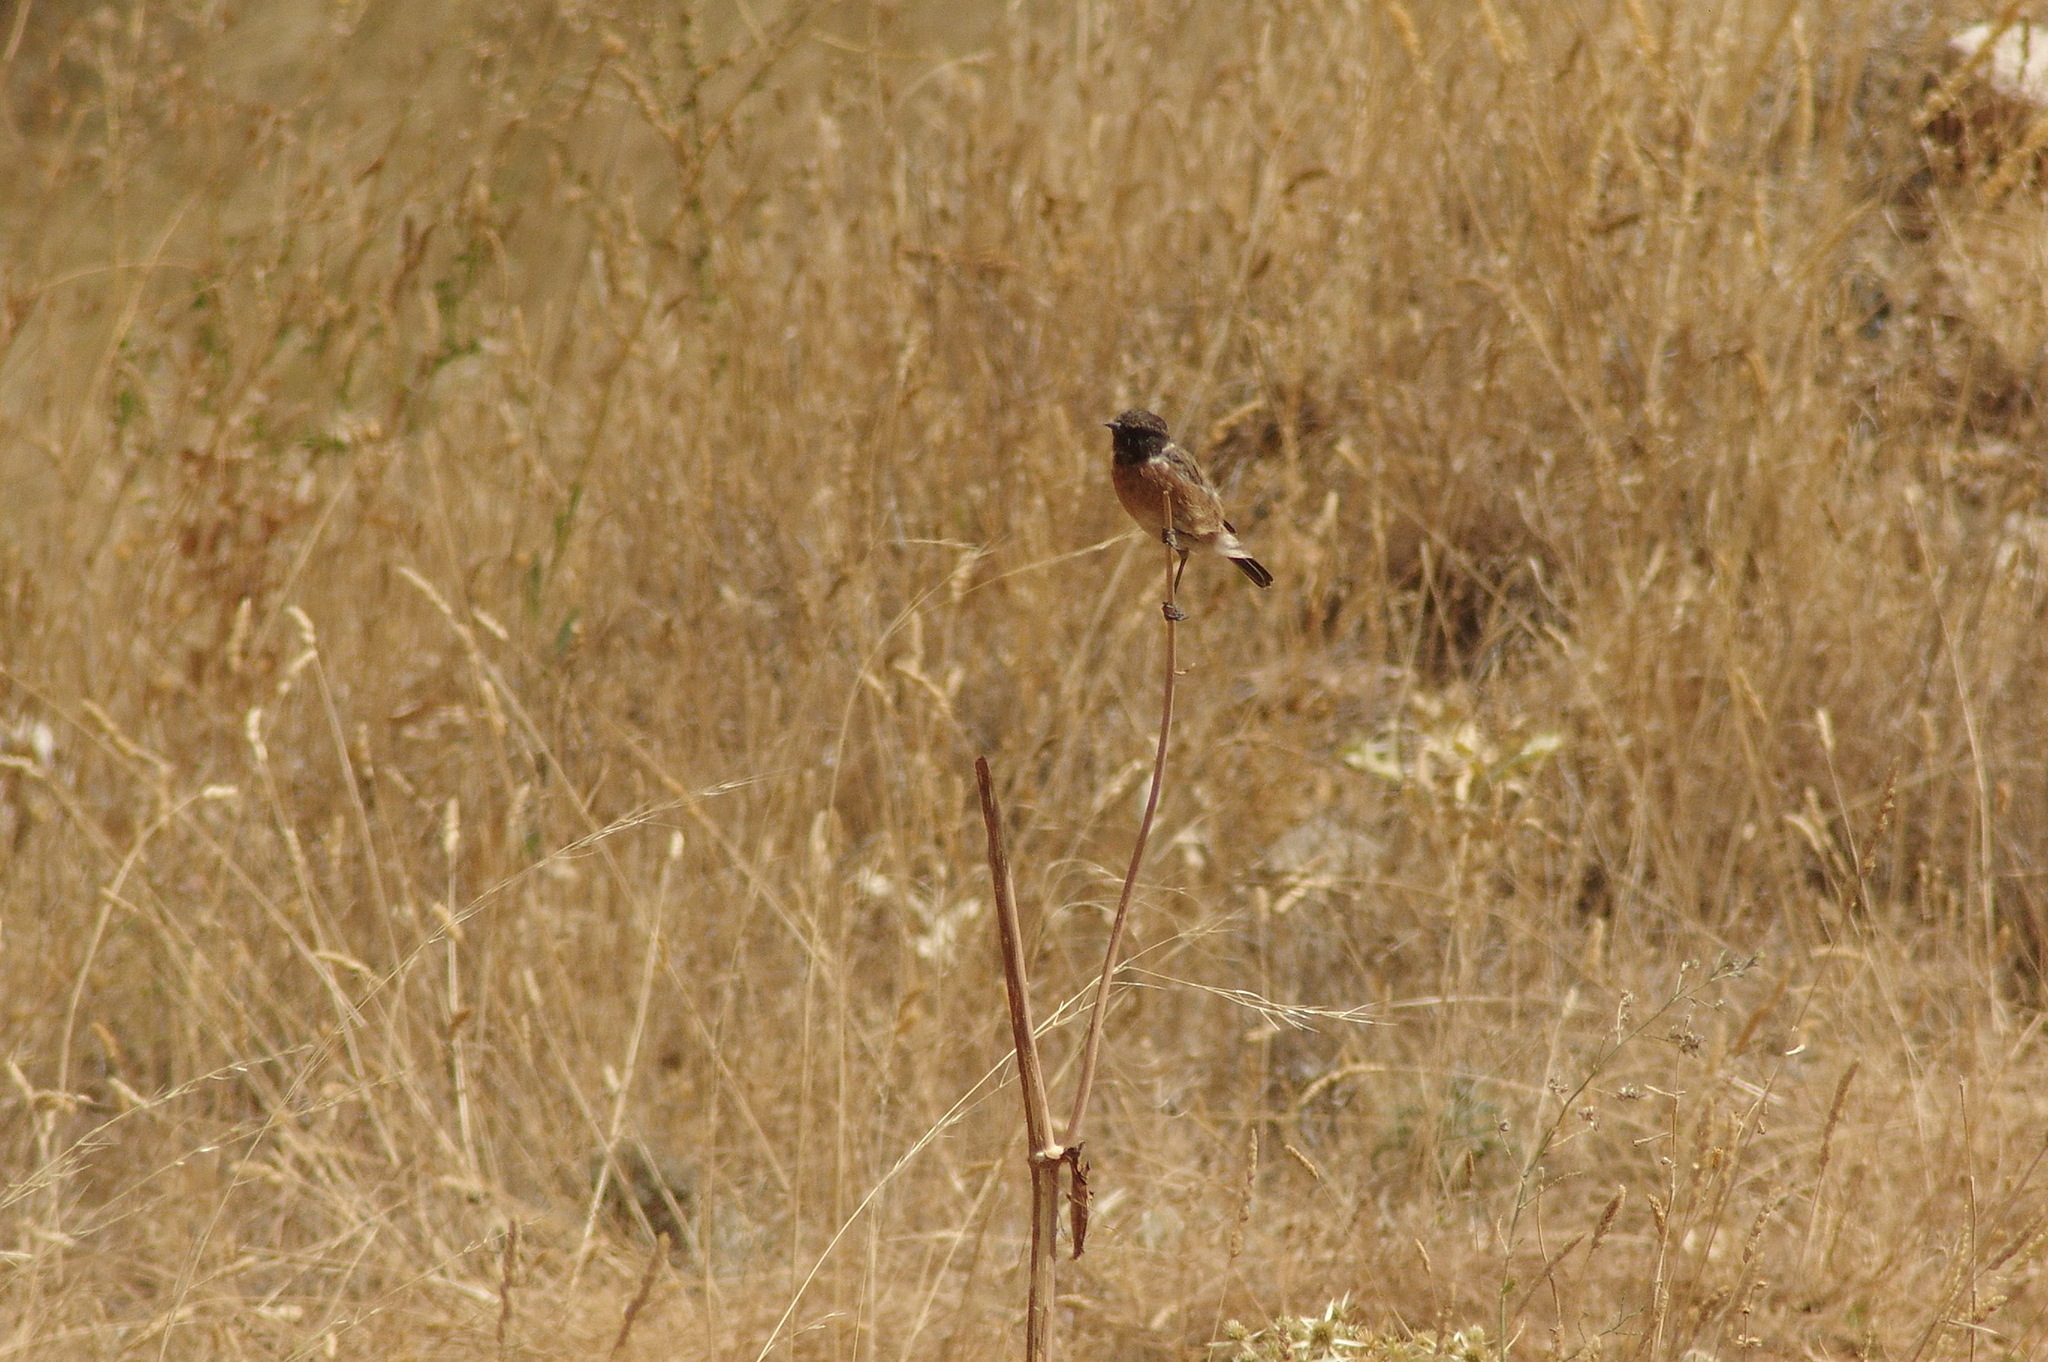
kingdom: Animalia
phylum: Chordata
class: Aves
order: Passeriformes
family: Muscicapidae
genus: Saxicola
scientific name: Saxicola rubicola
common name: European stonechat
